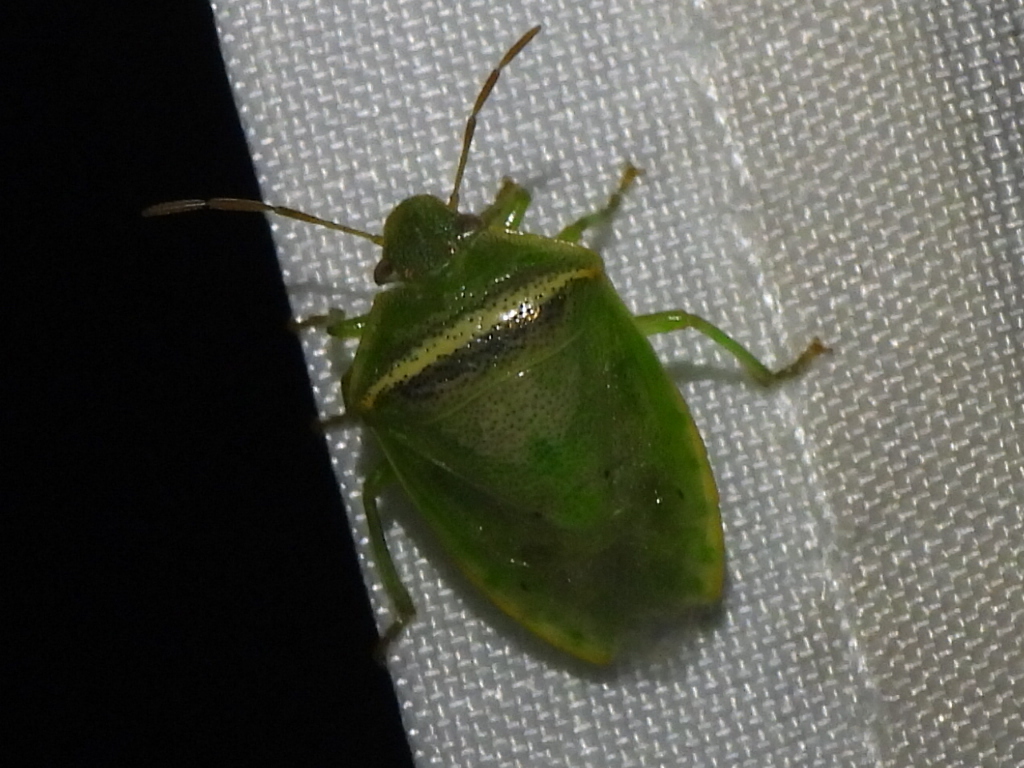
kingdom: Animalia
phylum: Arthropoda
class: Insecta
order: Hemiptera
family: Pentatomidae
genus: Piezodorus
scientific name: Piezodorus guildinii
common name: Redbanded stink bug
